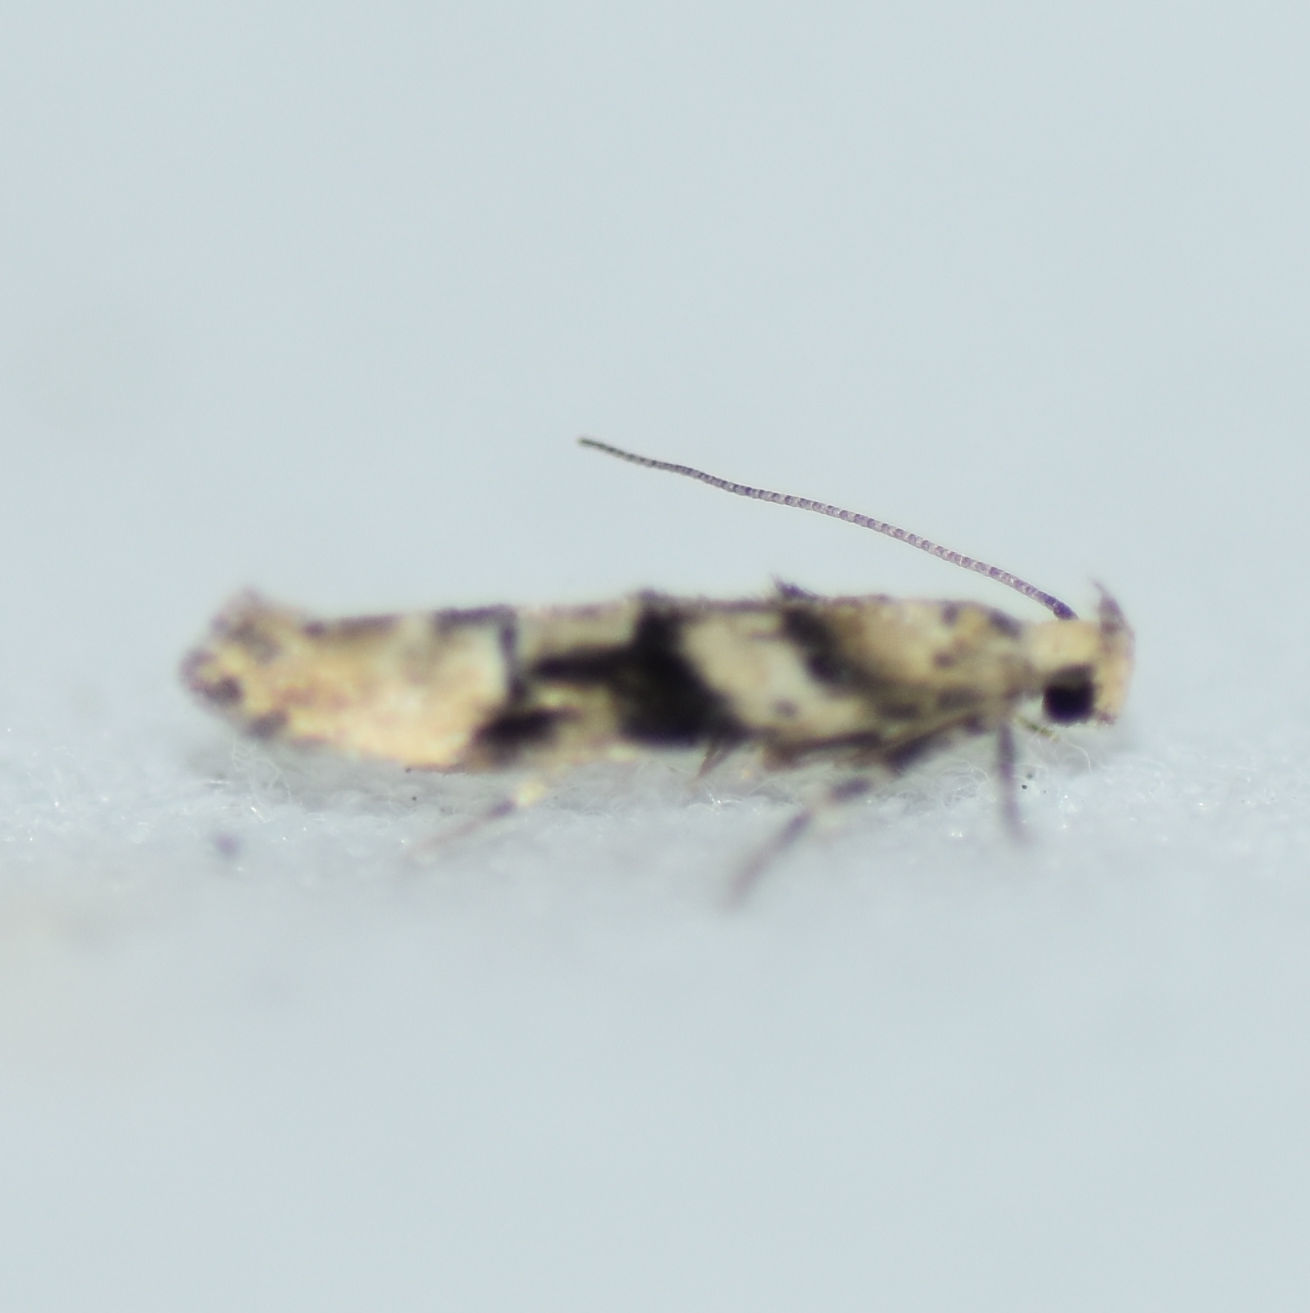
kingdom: Animalia
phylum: Arthropoda
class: Insecta
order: Lepidoptera
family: Gelechiidae
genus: Coleotechnites
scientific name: Coleotechnites atrupictella
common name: Spruce micromoth
